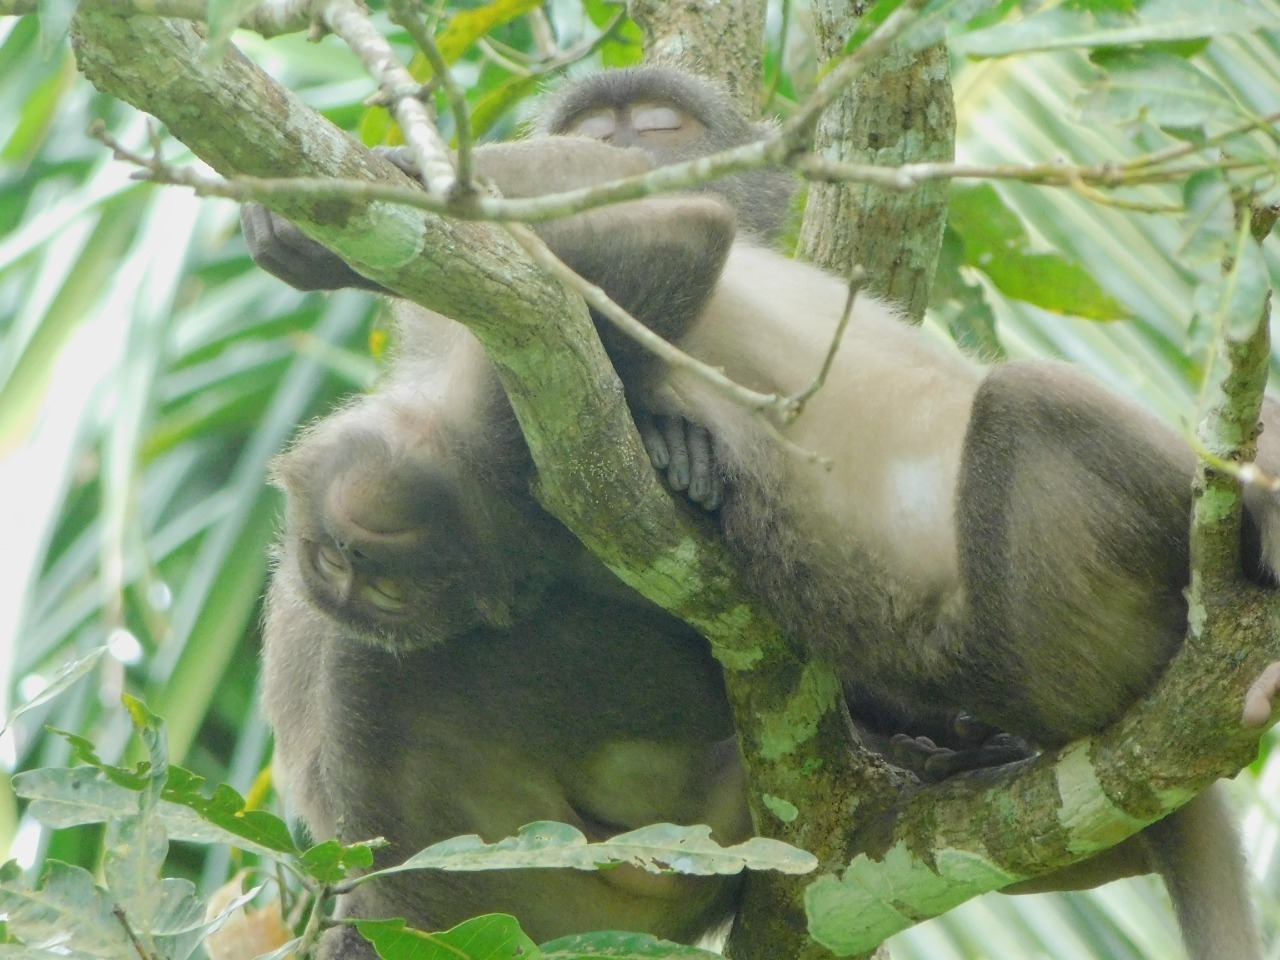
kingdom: Animalia
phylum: Chordata
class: Mammalia
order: Primates
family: Cercopithecidae
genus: Macaca
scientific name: Macaca fascicularis
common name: Crab-eating macaque
